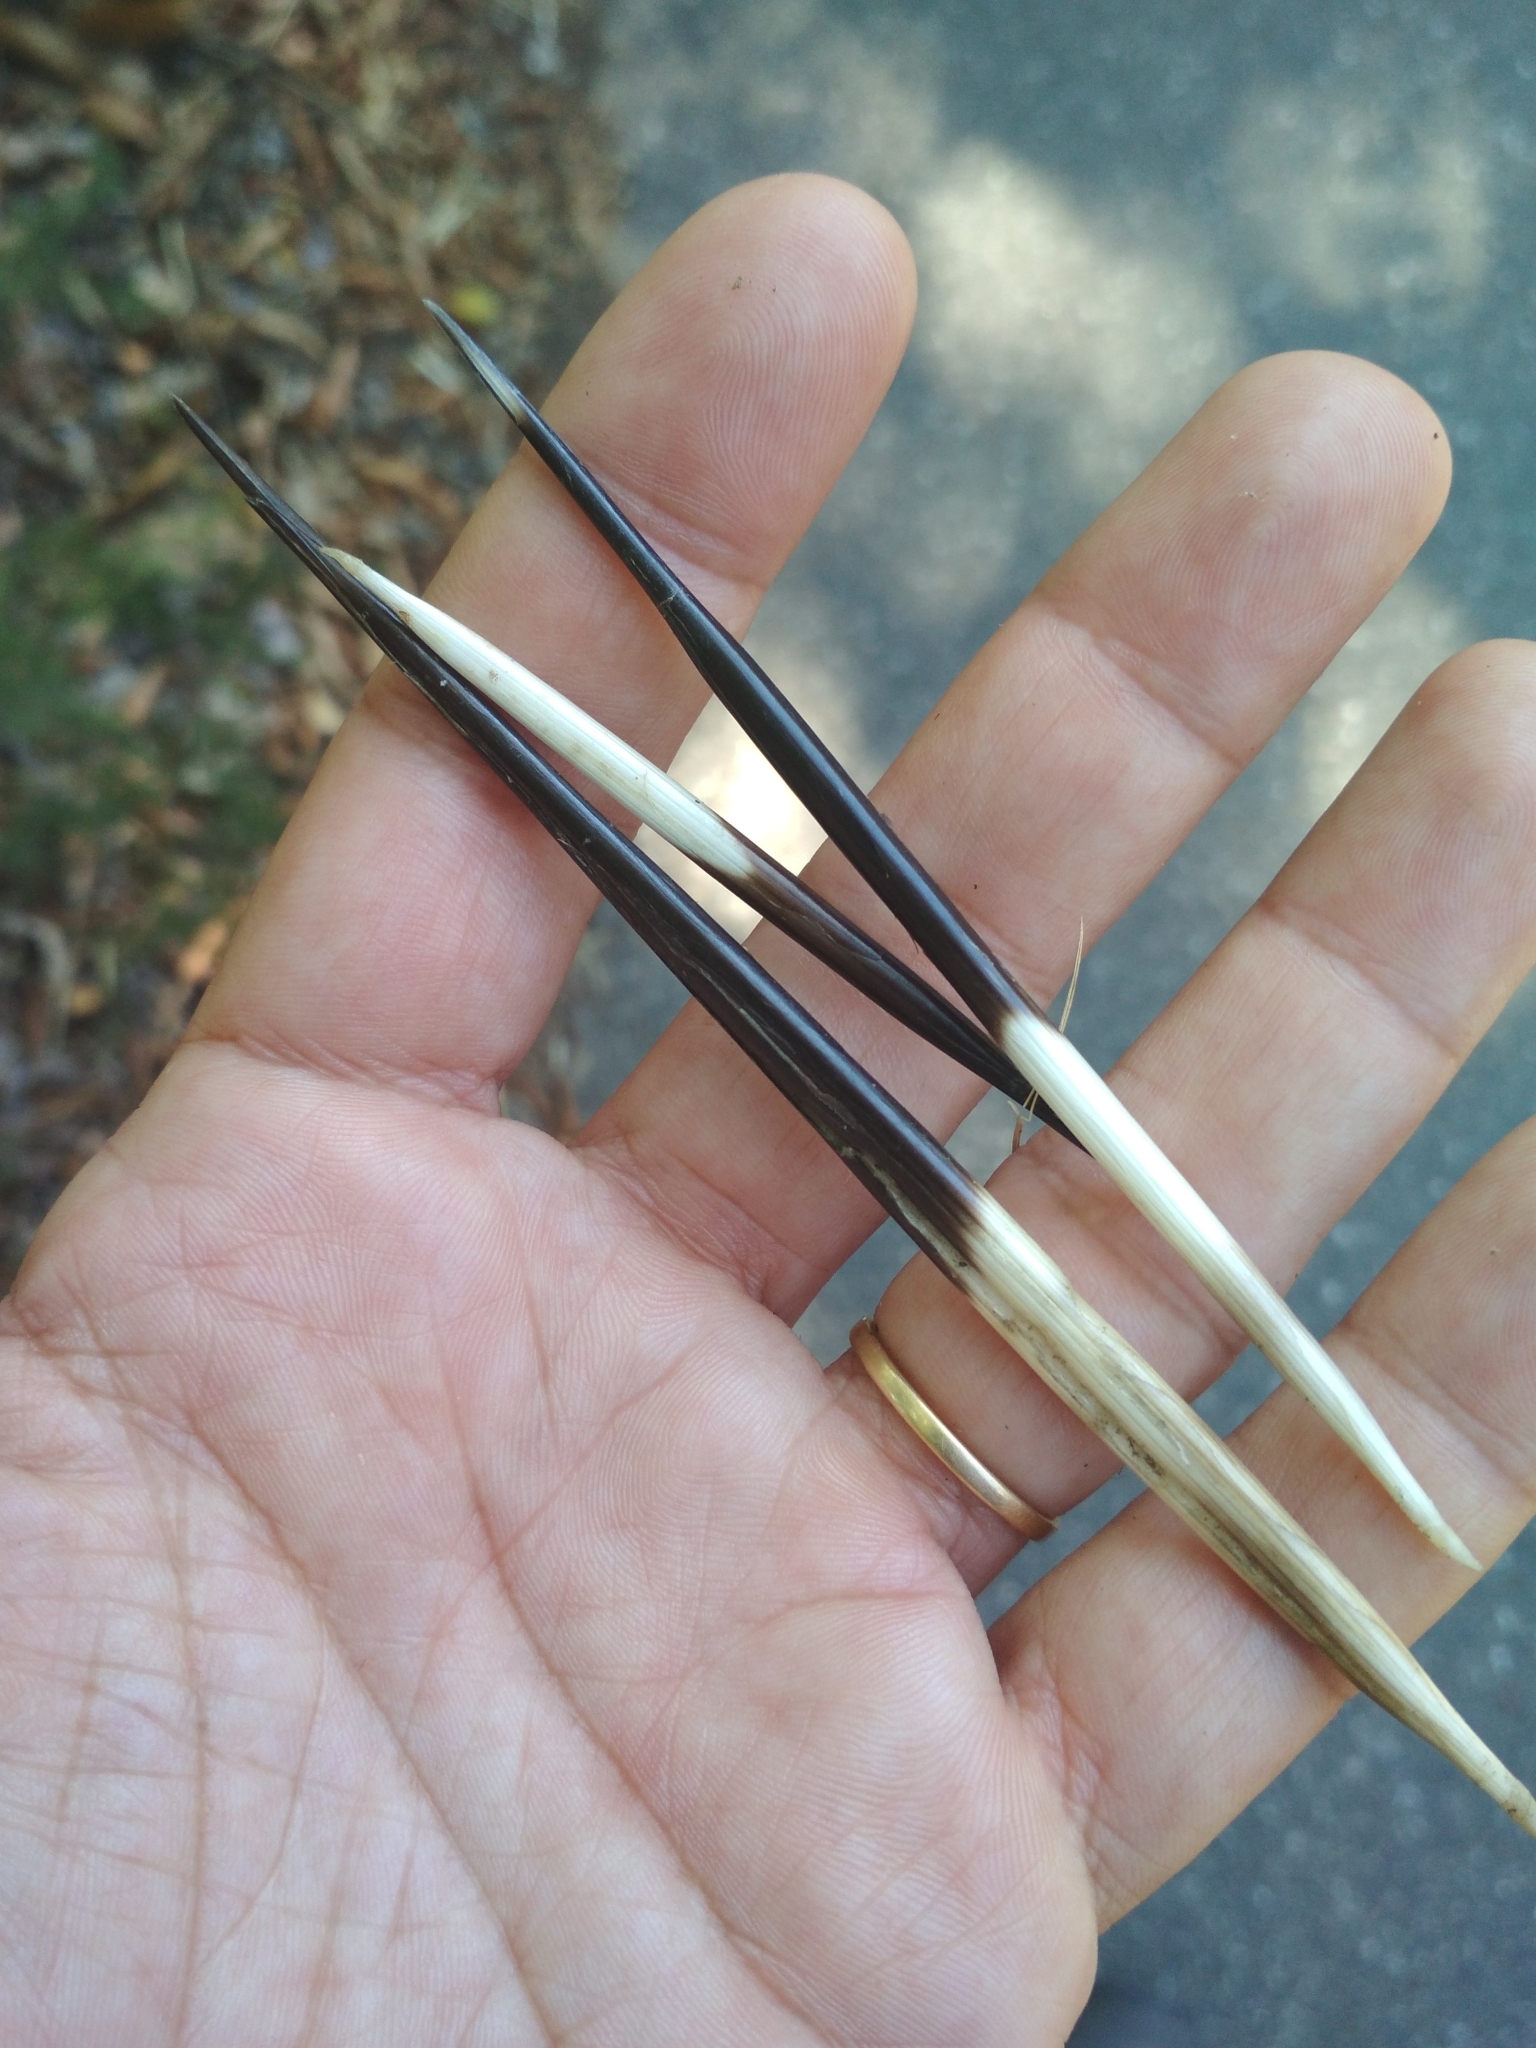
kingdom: Animalia
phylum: Chordata
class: Mammalia
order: Rodentia
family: Hystricidae
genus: Hystrix
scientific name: Hystrix cristata
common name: Crested porcupine
